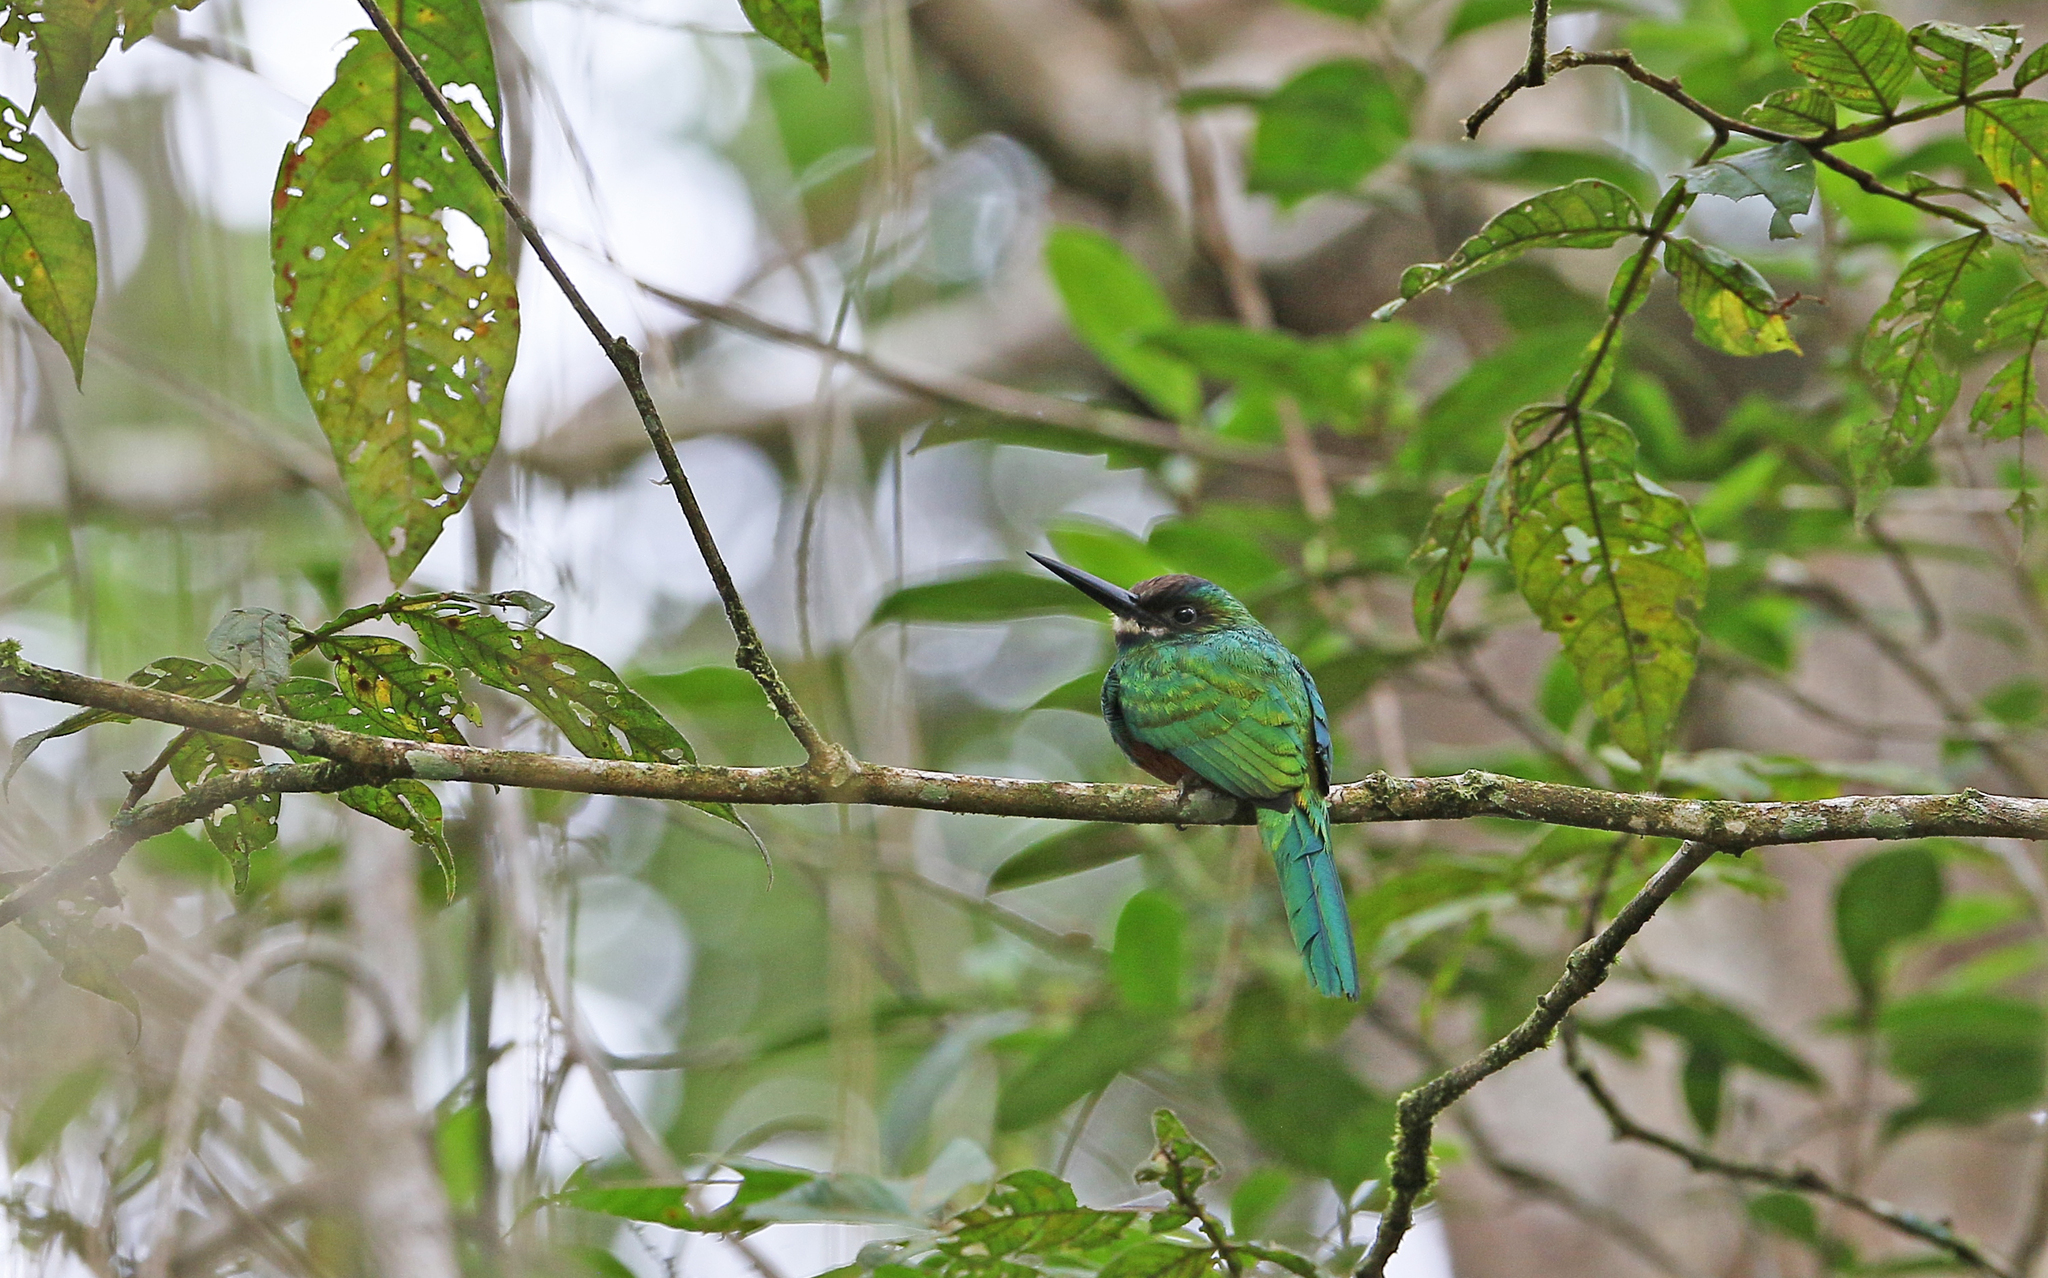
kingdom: Animalia
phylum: Chordata
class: Aves
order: Piciformes
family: Galbulidae
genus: Galbula
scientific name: Galbula tombacea
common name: White-chinned jacamar
